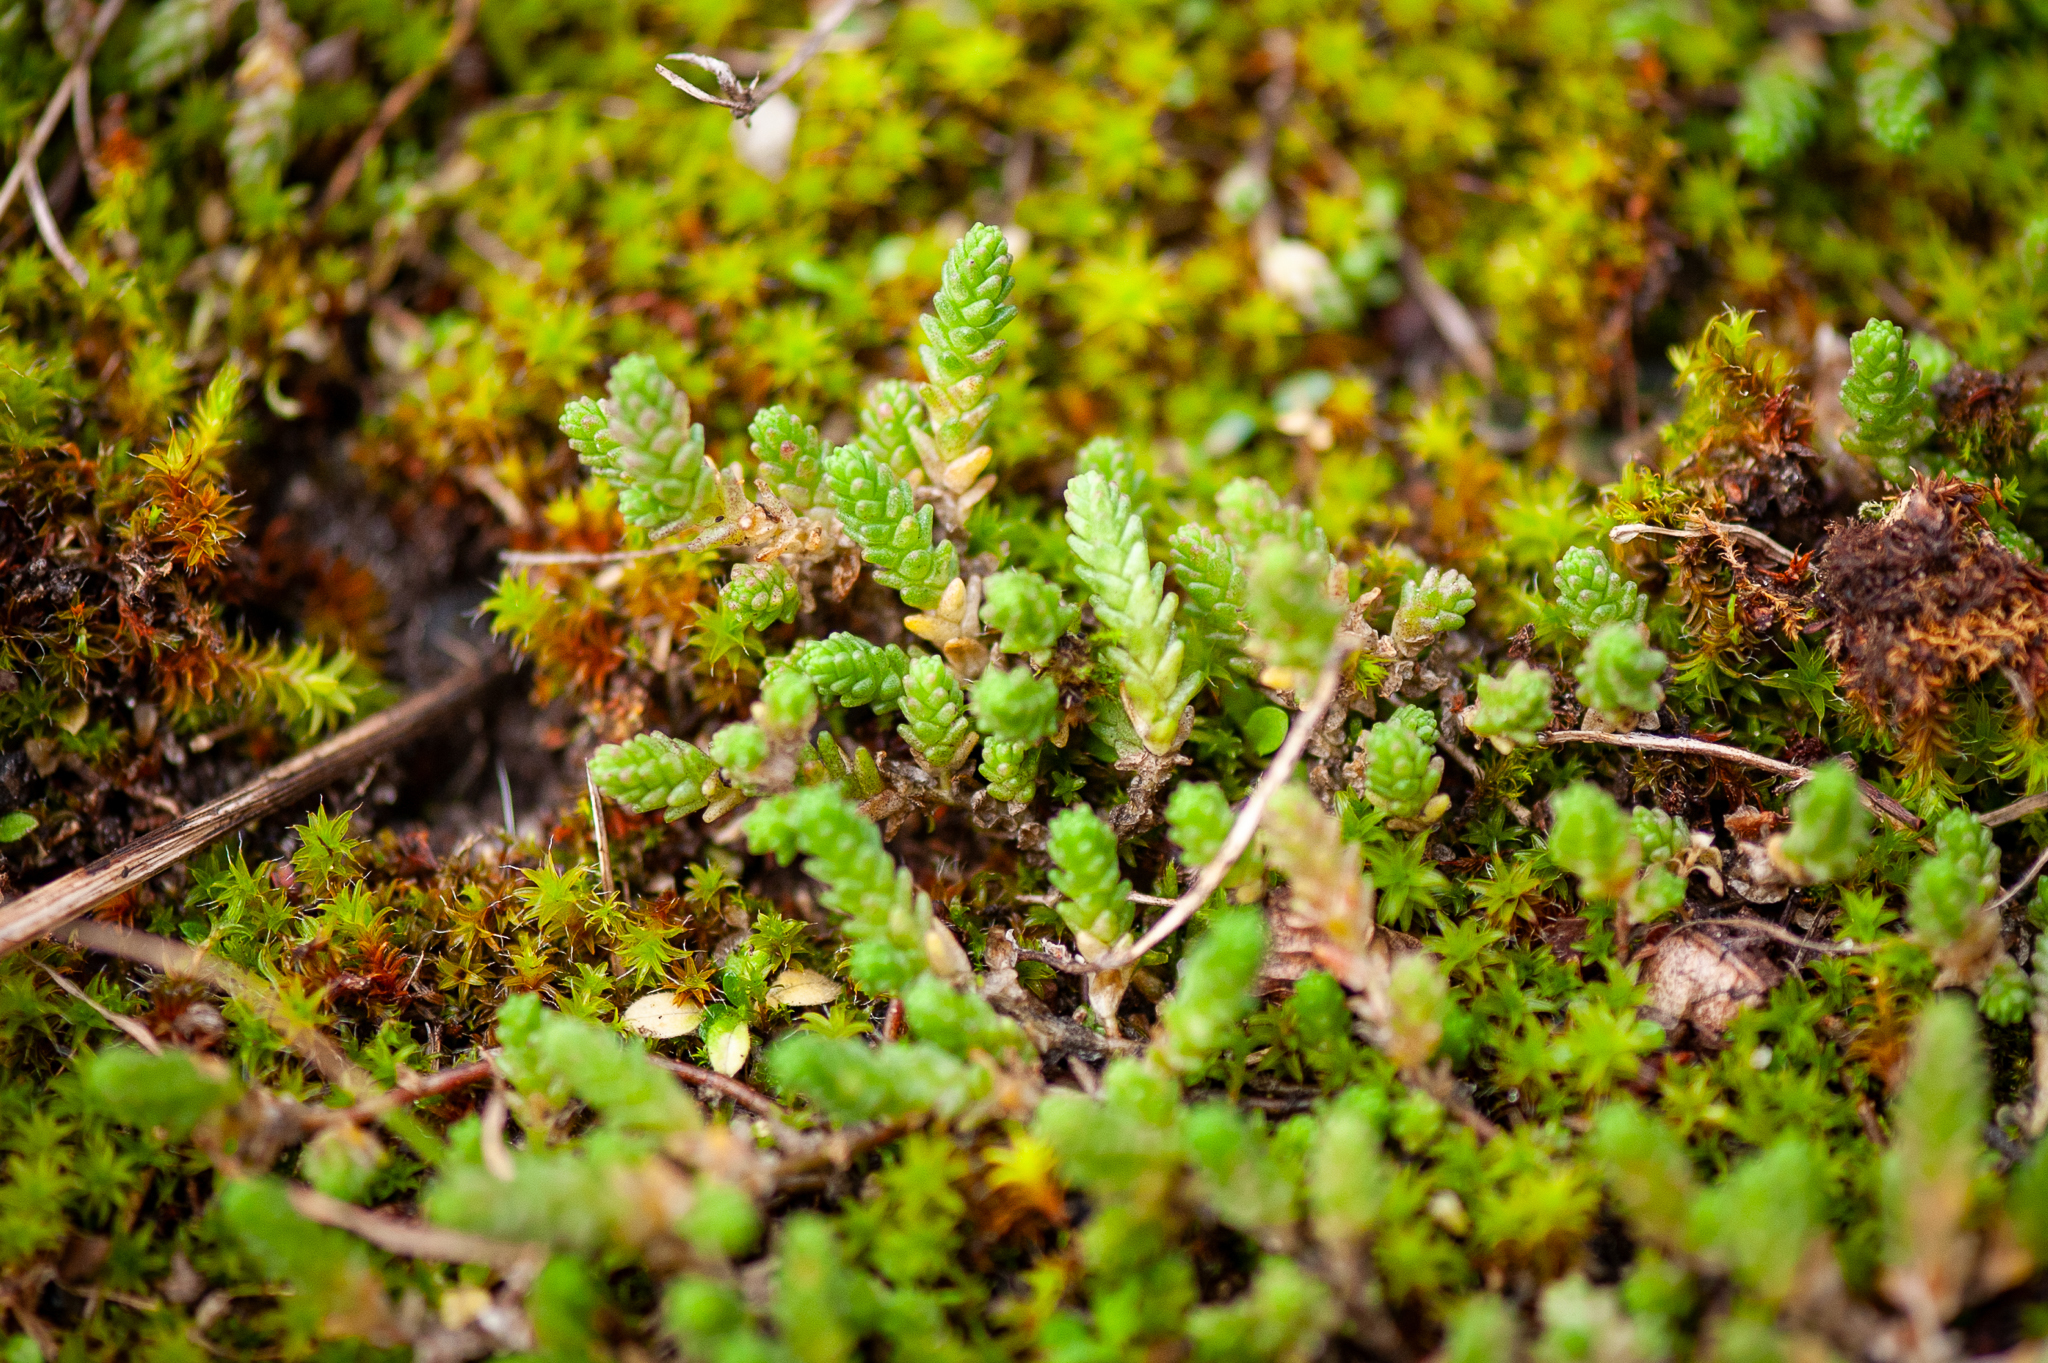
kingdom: Plantae
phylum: Tracheophyta
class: Magnoliopsida
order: Saxifragales
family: Crassulaceae
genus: Sedum
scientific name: Sedum acre
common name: Biting stonecrop
